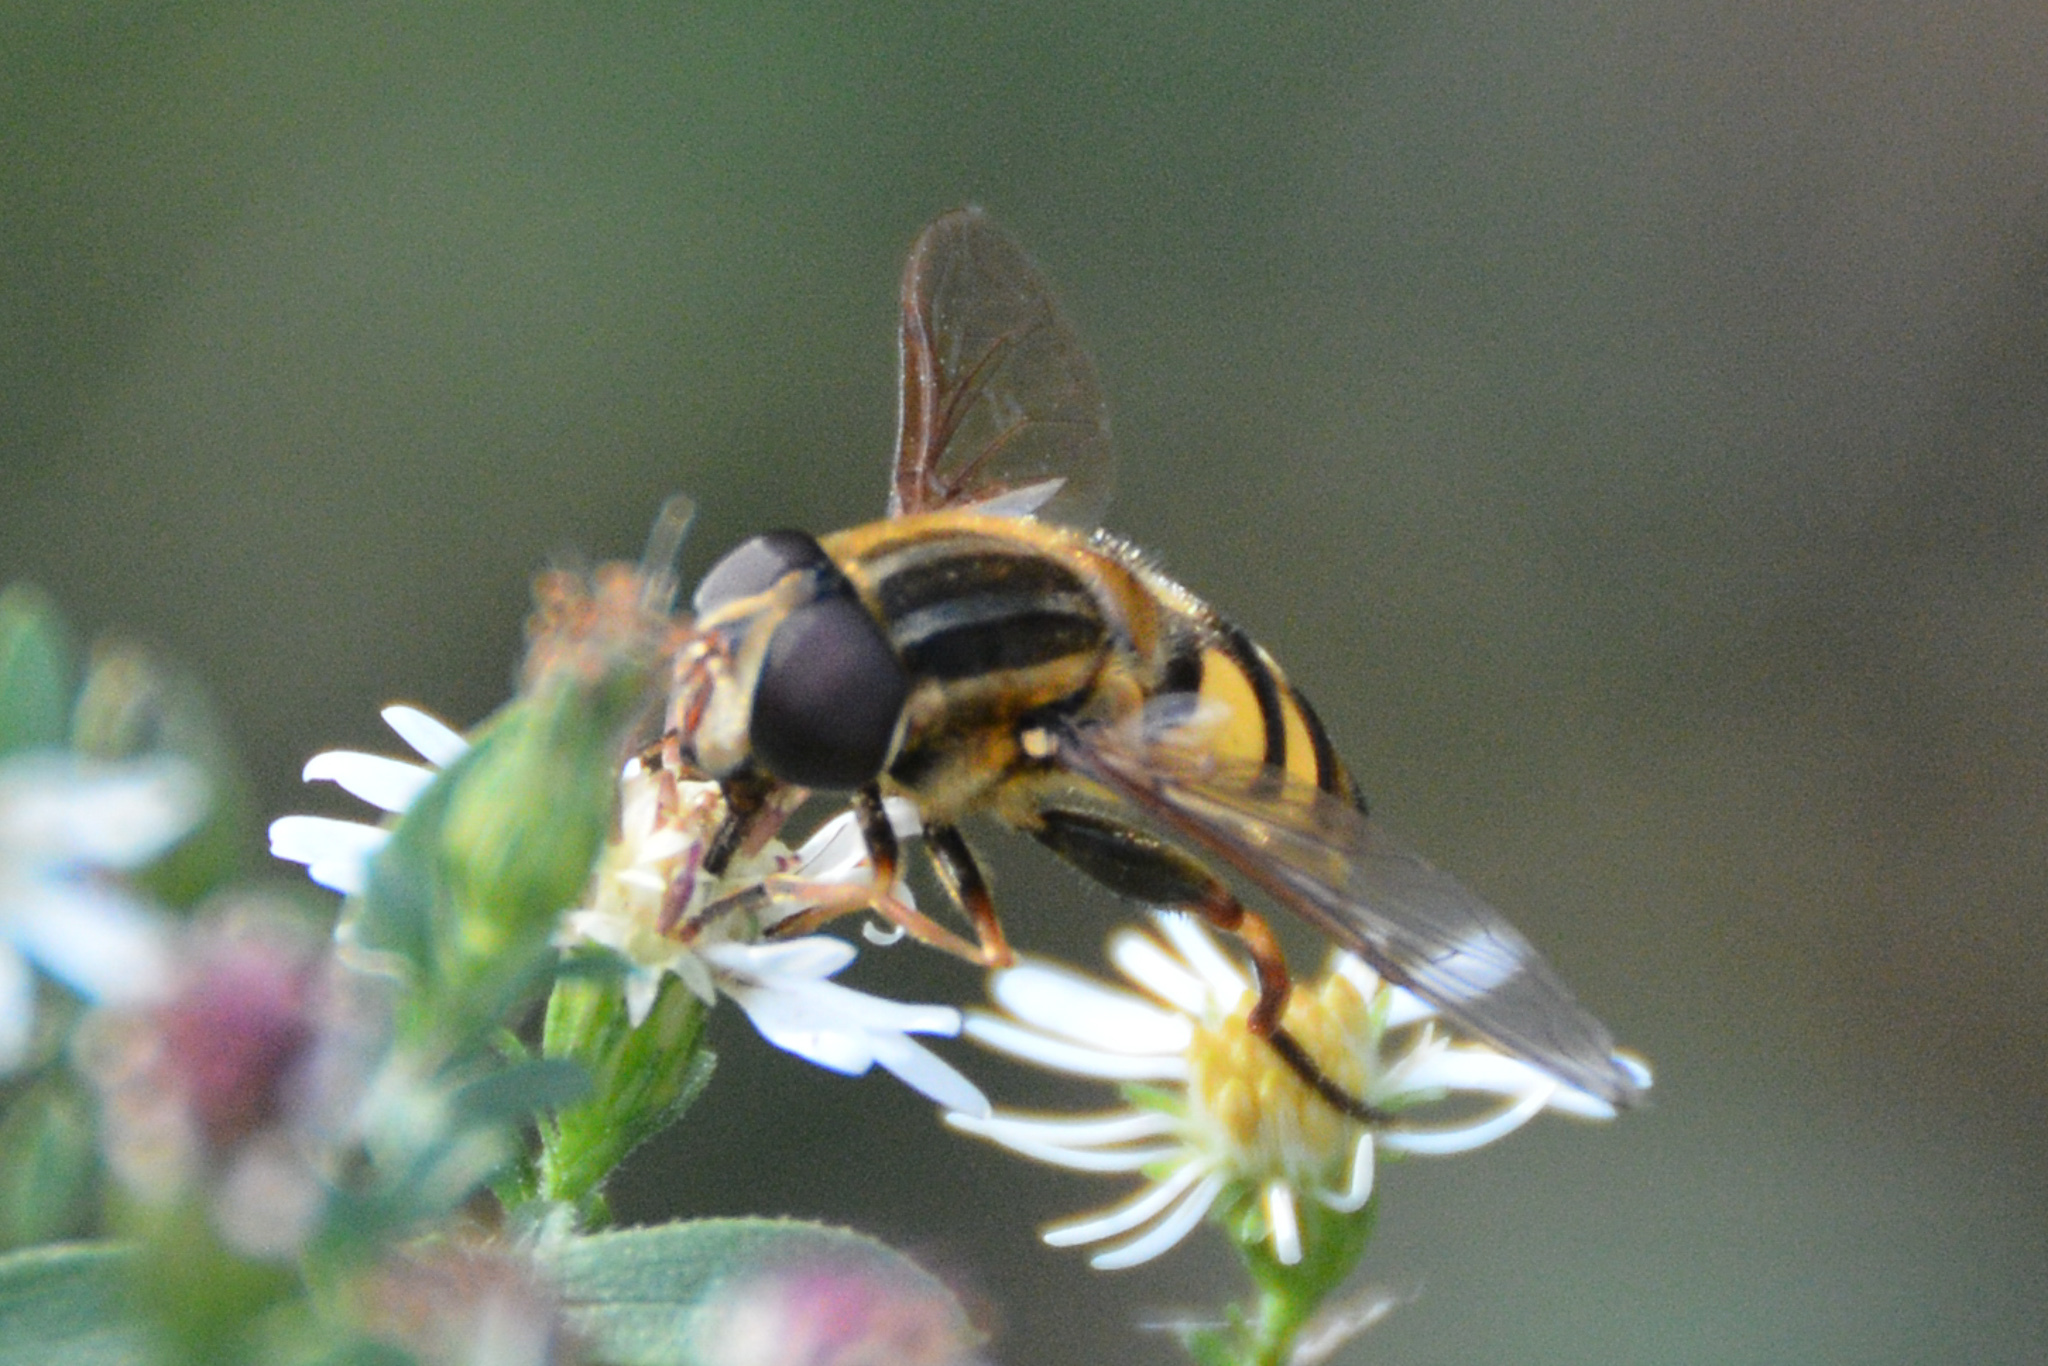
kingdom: Animalia
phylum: Arthropoda
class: Insecta
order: Diptera
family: Syrphidae
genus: Helophilus
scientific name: Helophilus fasciatus
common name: Narrow-headed marsh fly
